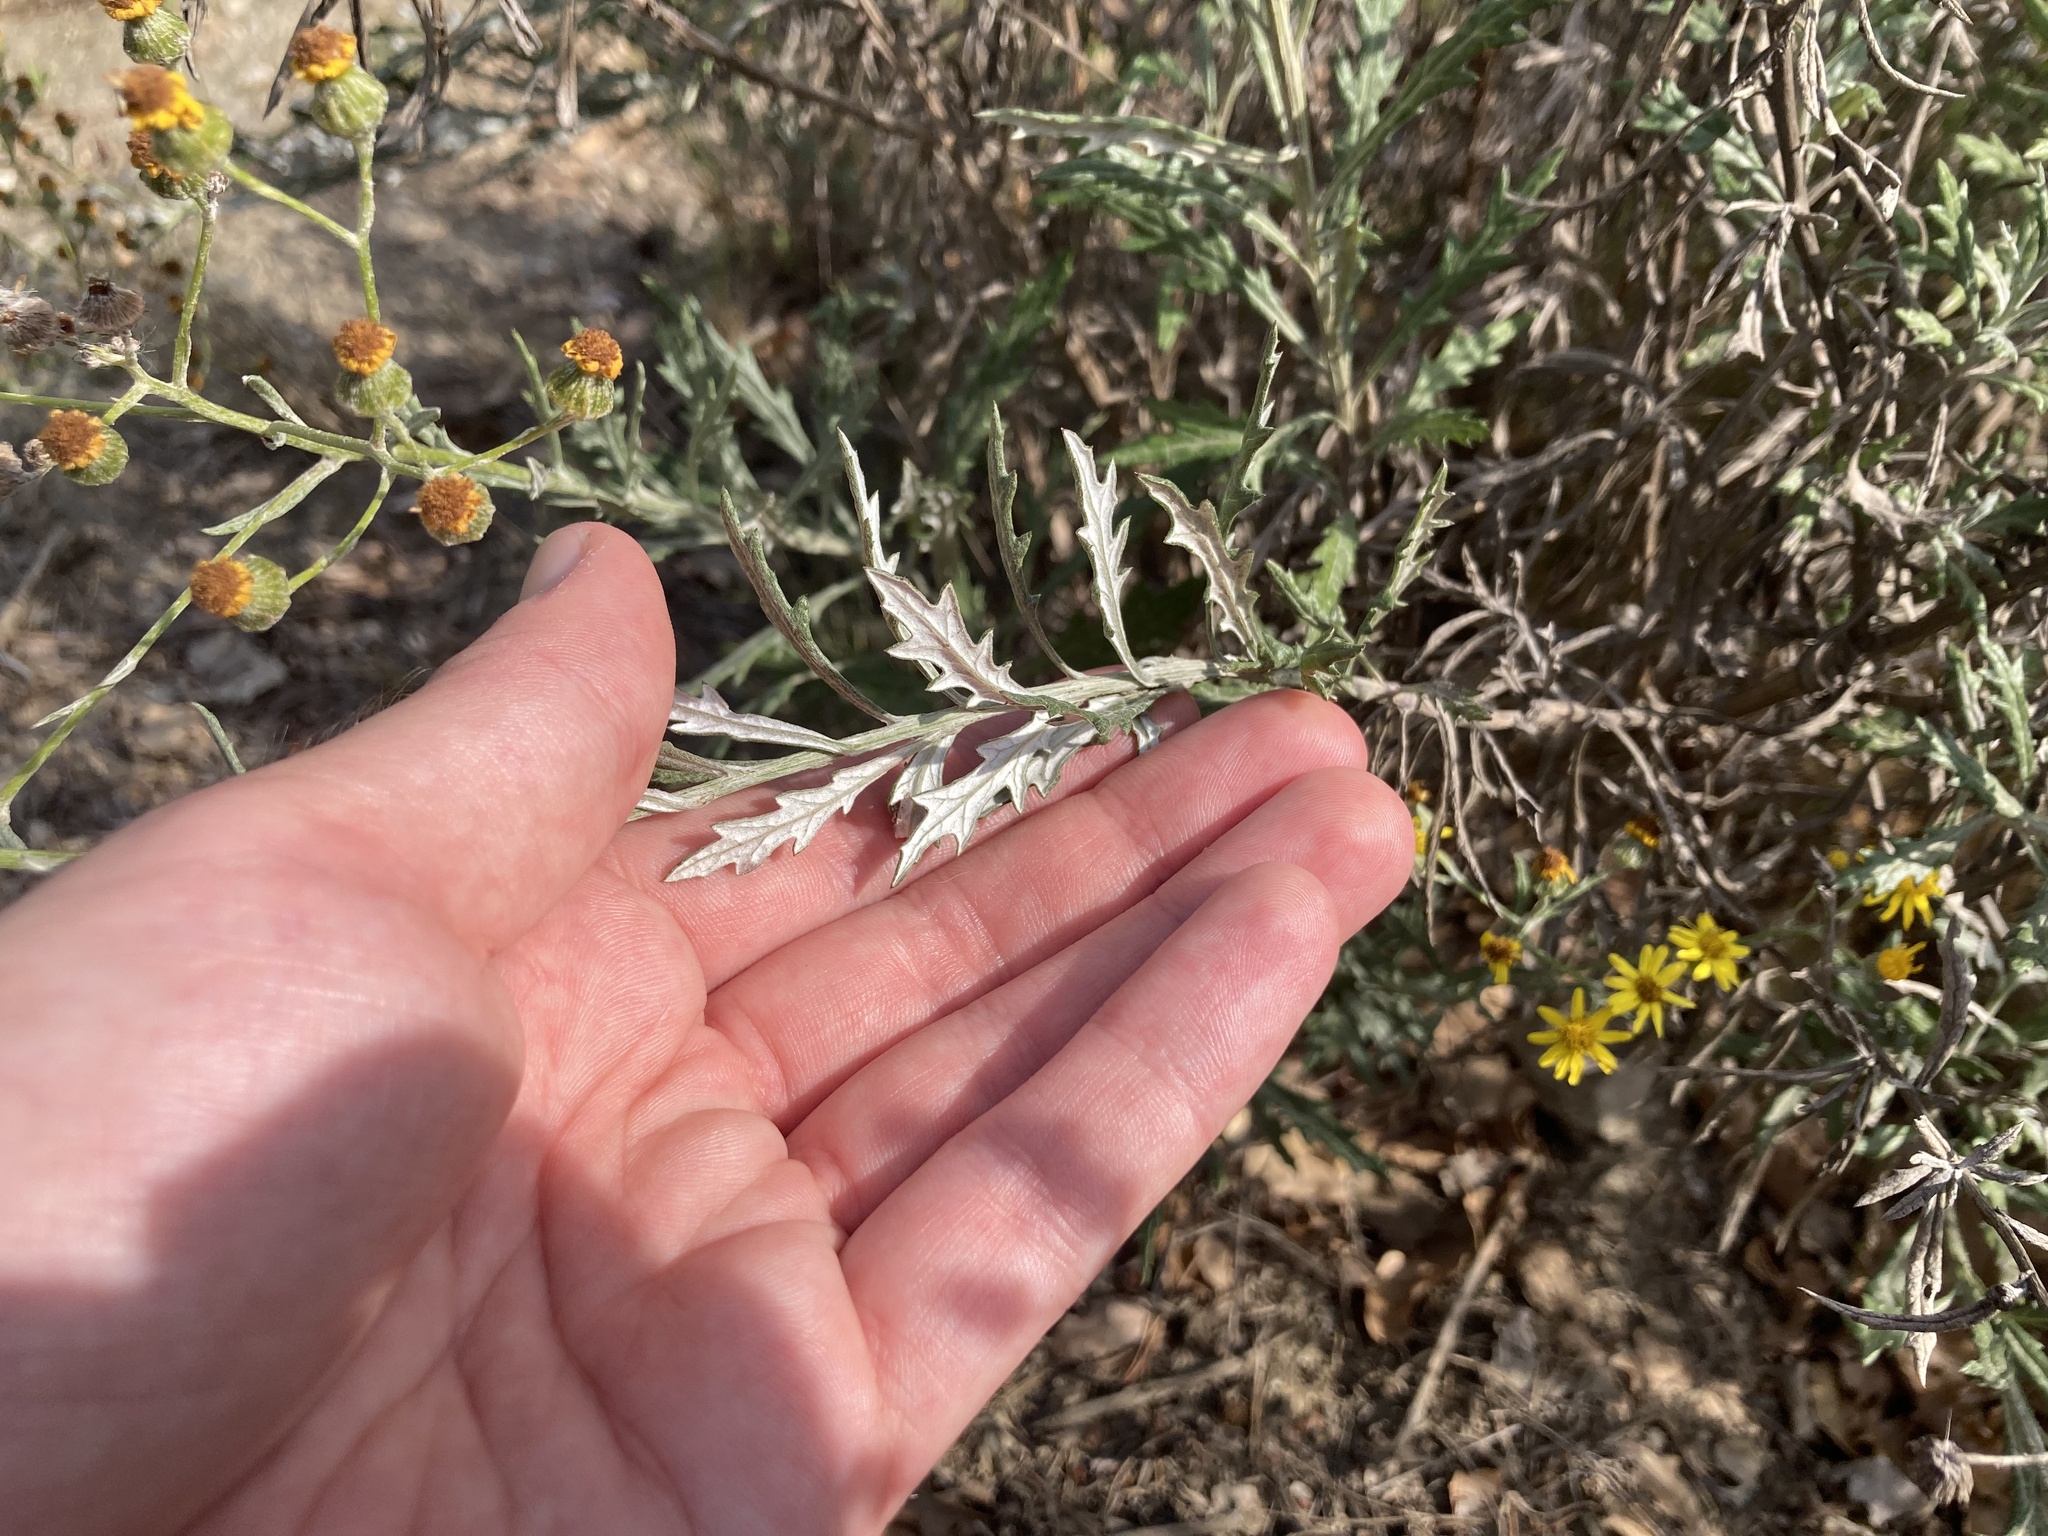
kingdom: Plantae
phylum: Tracheophyta
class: Magnoliopsida
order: Asterales
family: Asteraceae
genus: Senecio
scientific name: Senecio pterophorus
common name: Shoddy ragwort
